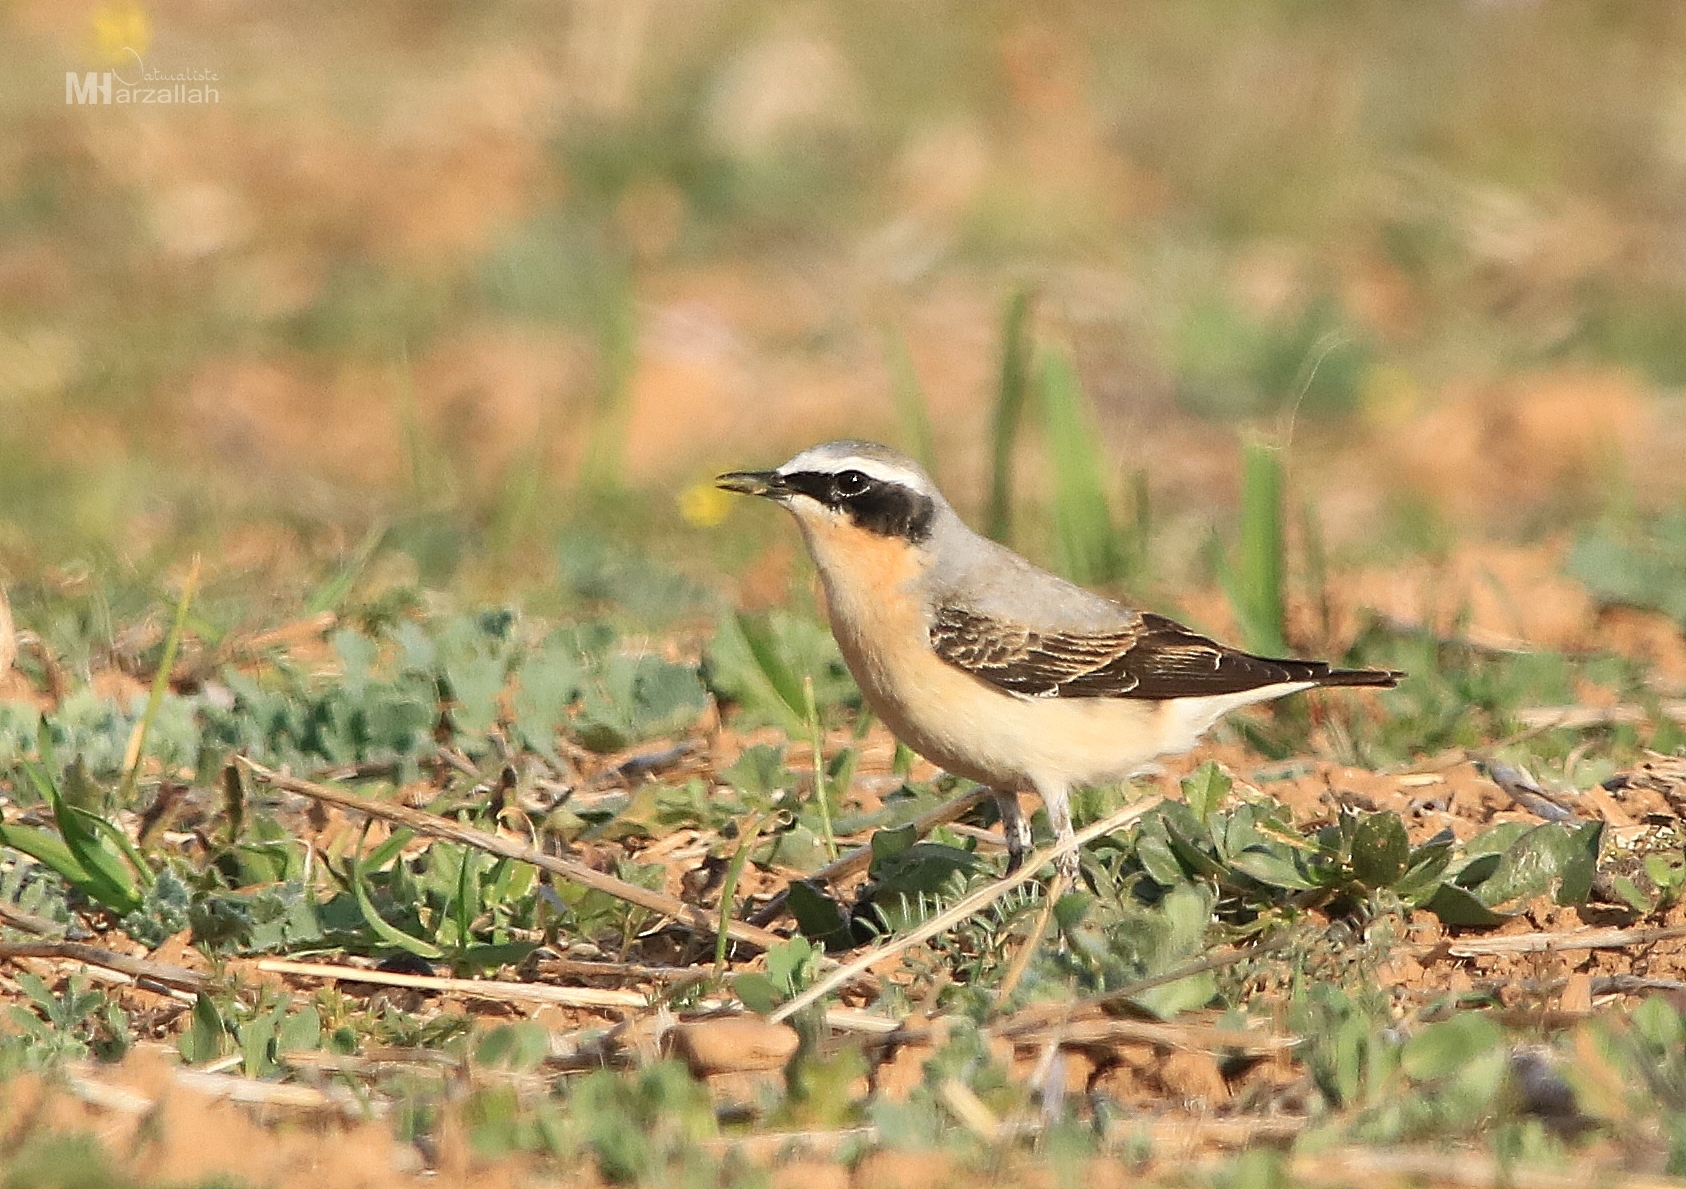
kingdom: Animalia
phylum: Chordata
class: Aves
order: Passeriformes
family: Muscicapidae
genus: Oenanthe
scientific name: Oenanthe oenanthe
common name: Northern wheatear
